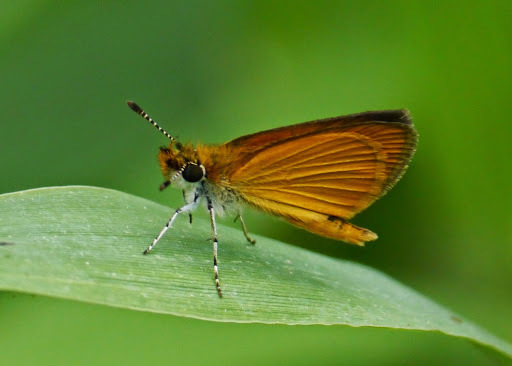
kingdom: Animalia
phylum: Arthropoda
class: Insecta
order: Lepidoptera
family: Hesperiidae
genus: Ancyloxypha
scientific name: Ancyloxypha numitor
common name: Least skipper
